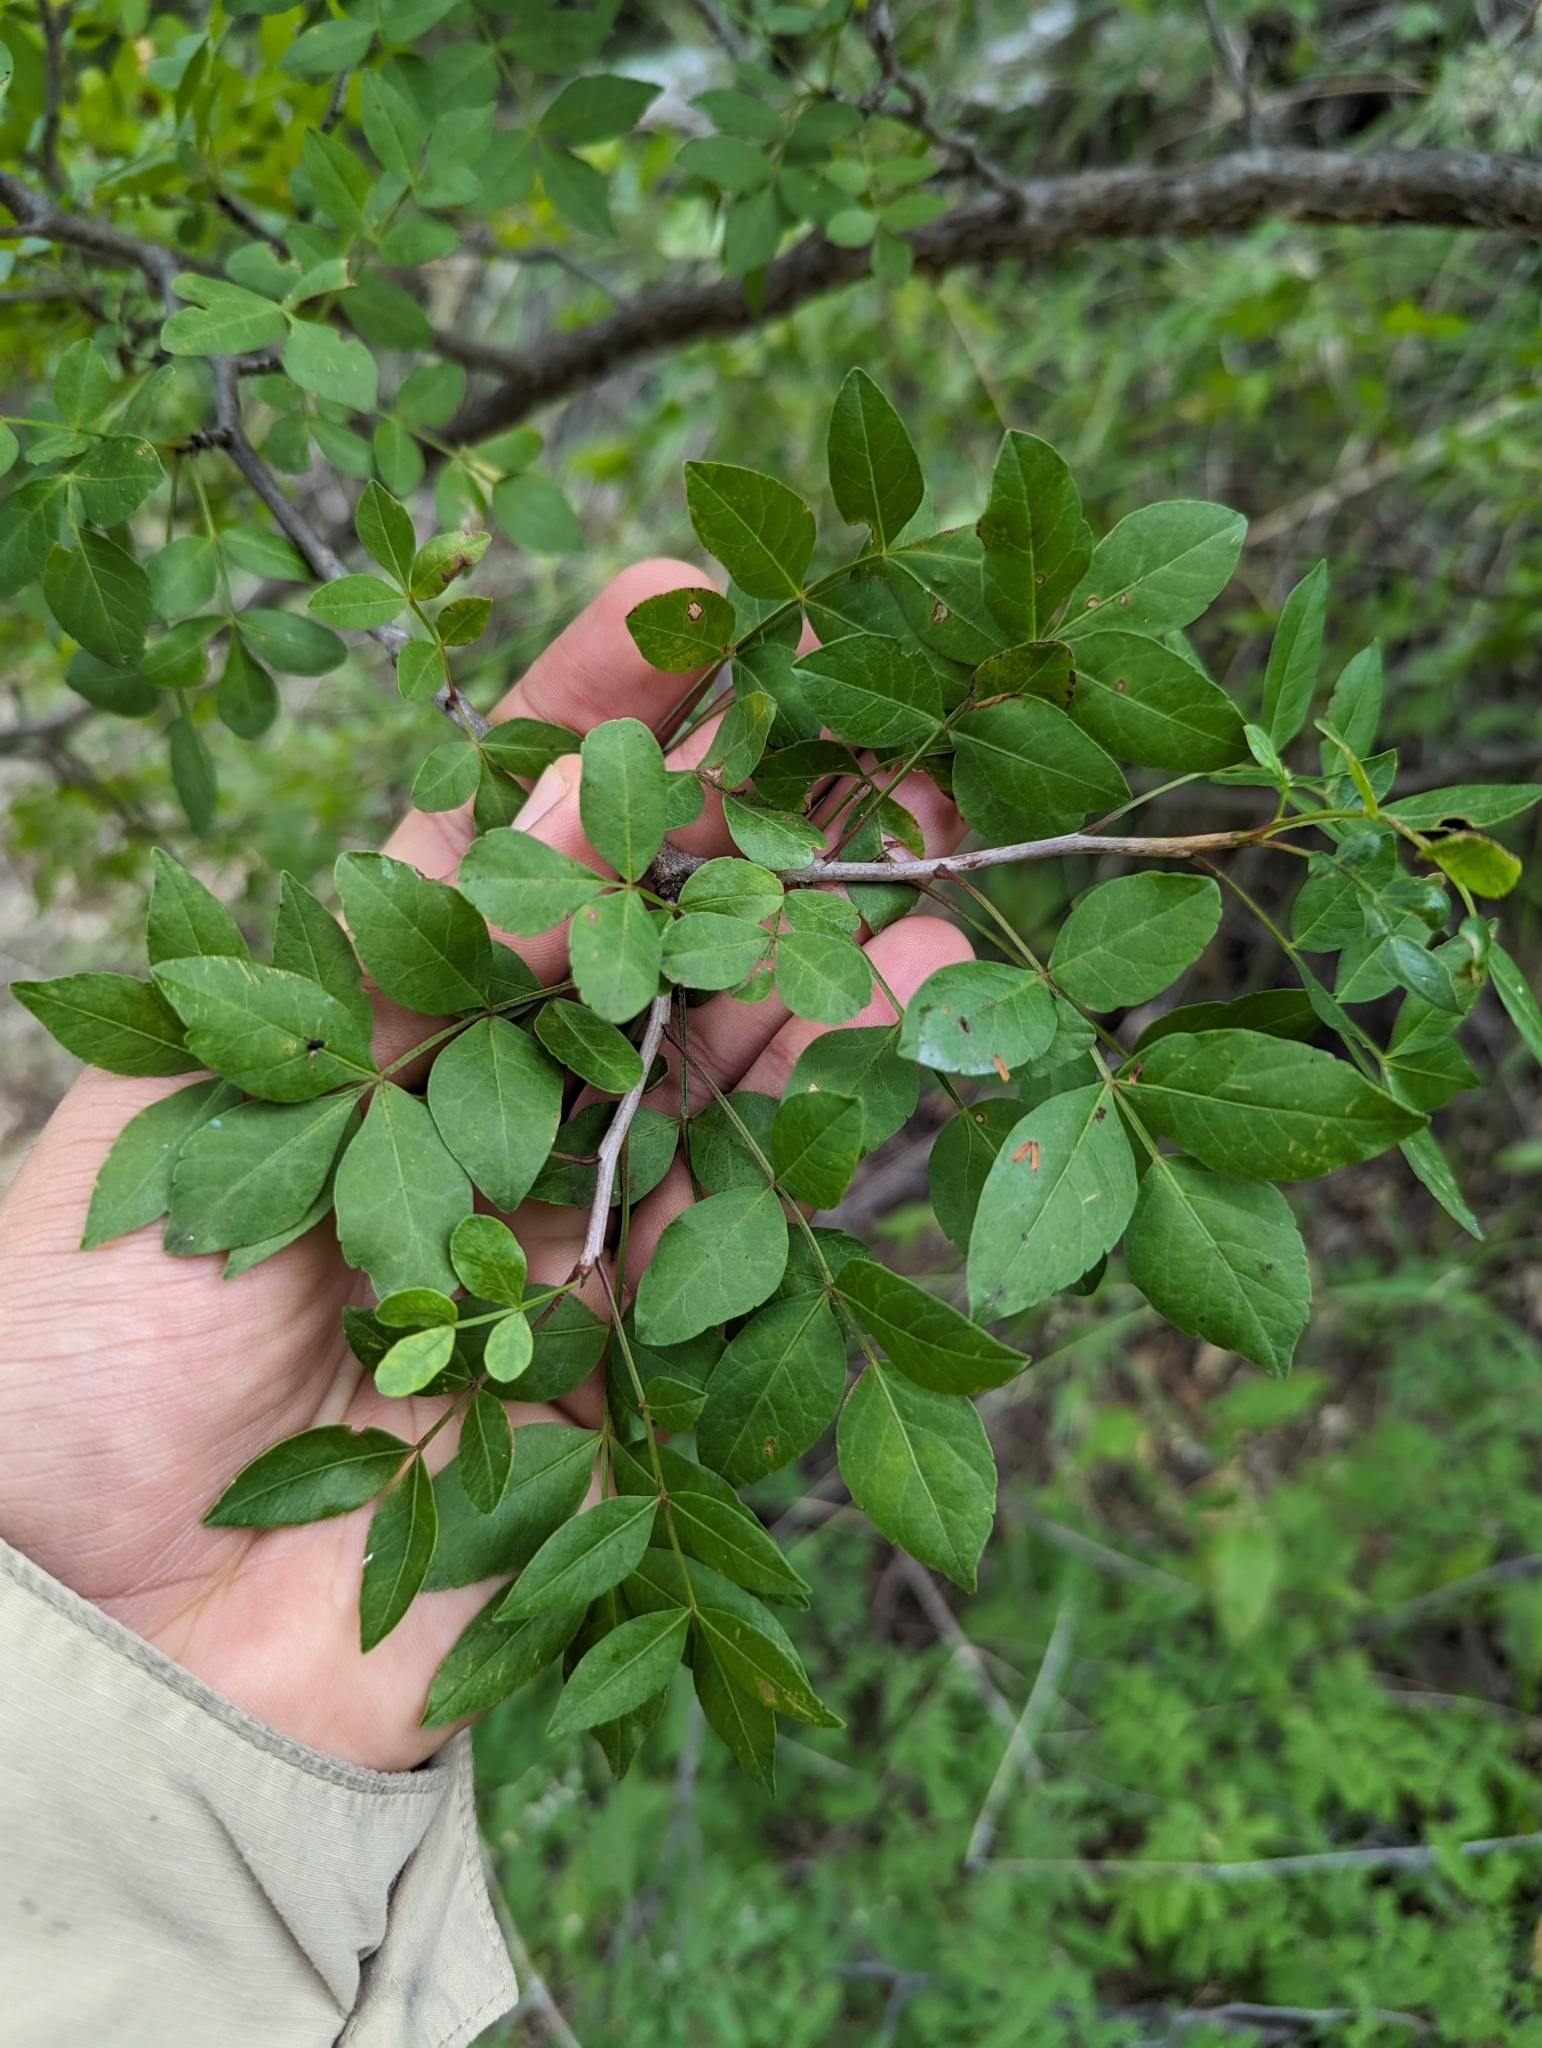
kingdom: Plantae
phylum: Tracheophyta
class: Magnoliopsida
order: Sapindales
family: Burseraceae
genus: Bursera
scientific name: Bursera fagaroides
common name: Elephant tree
